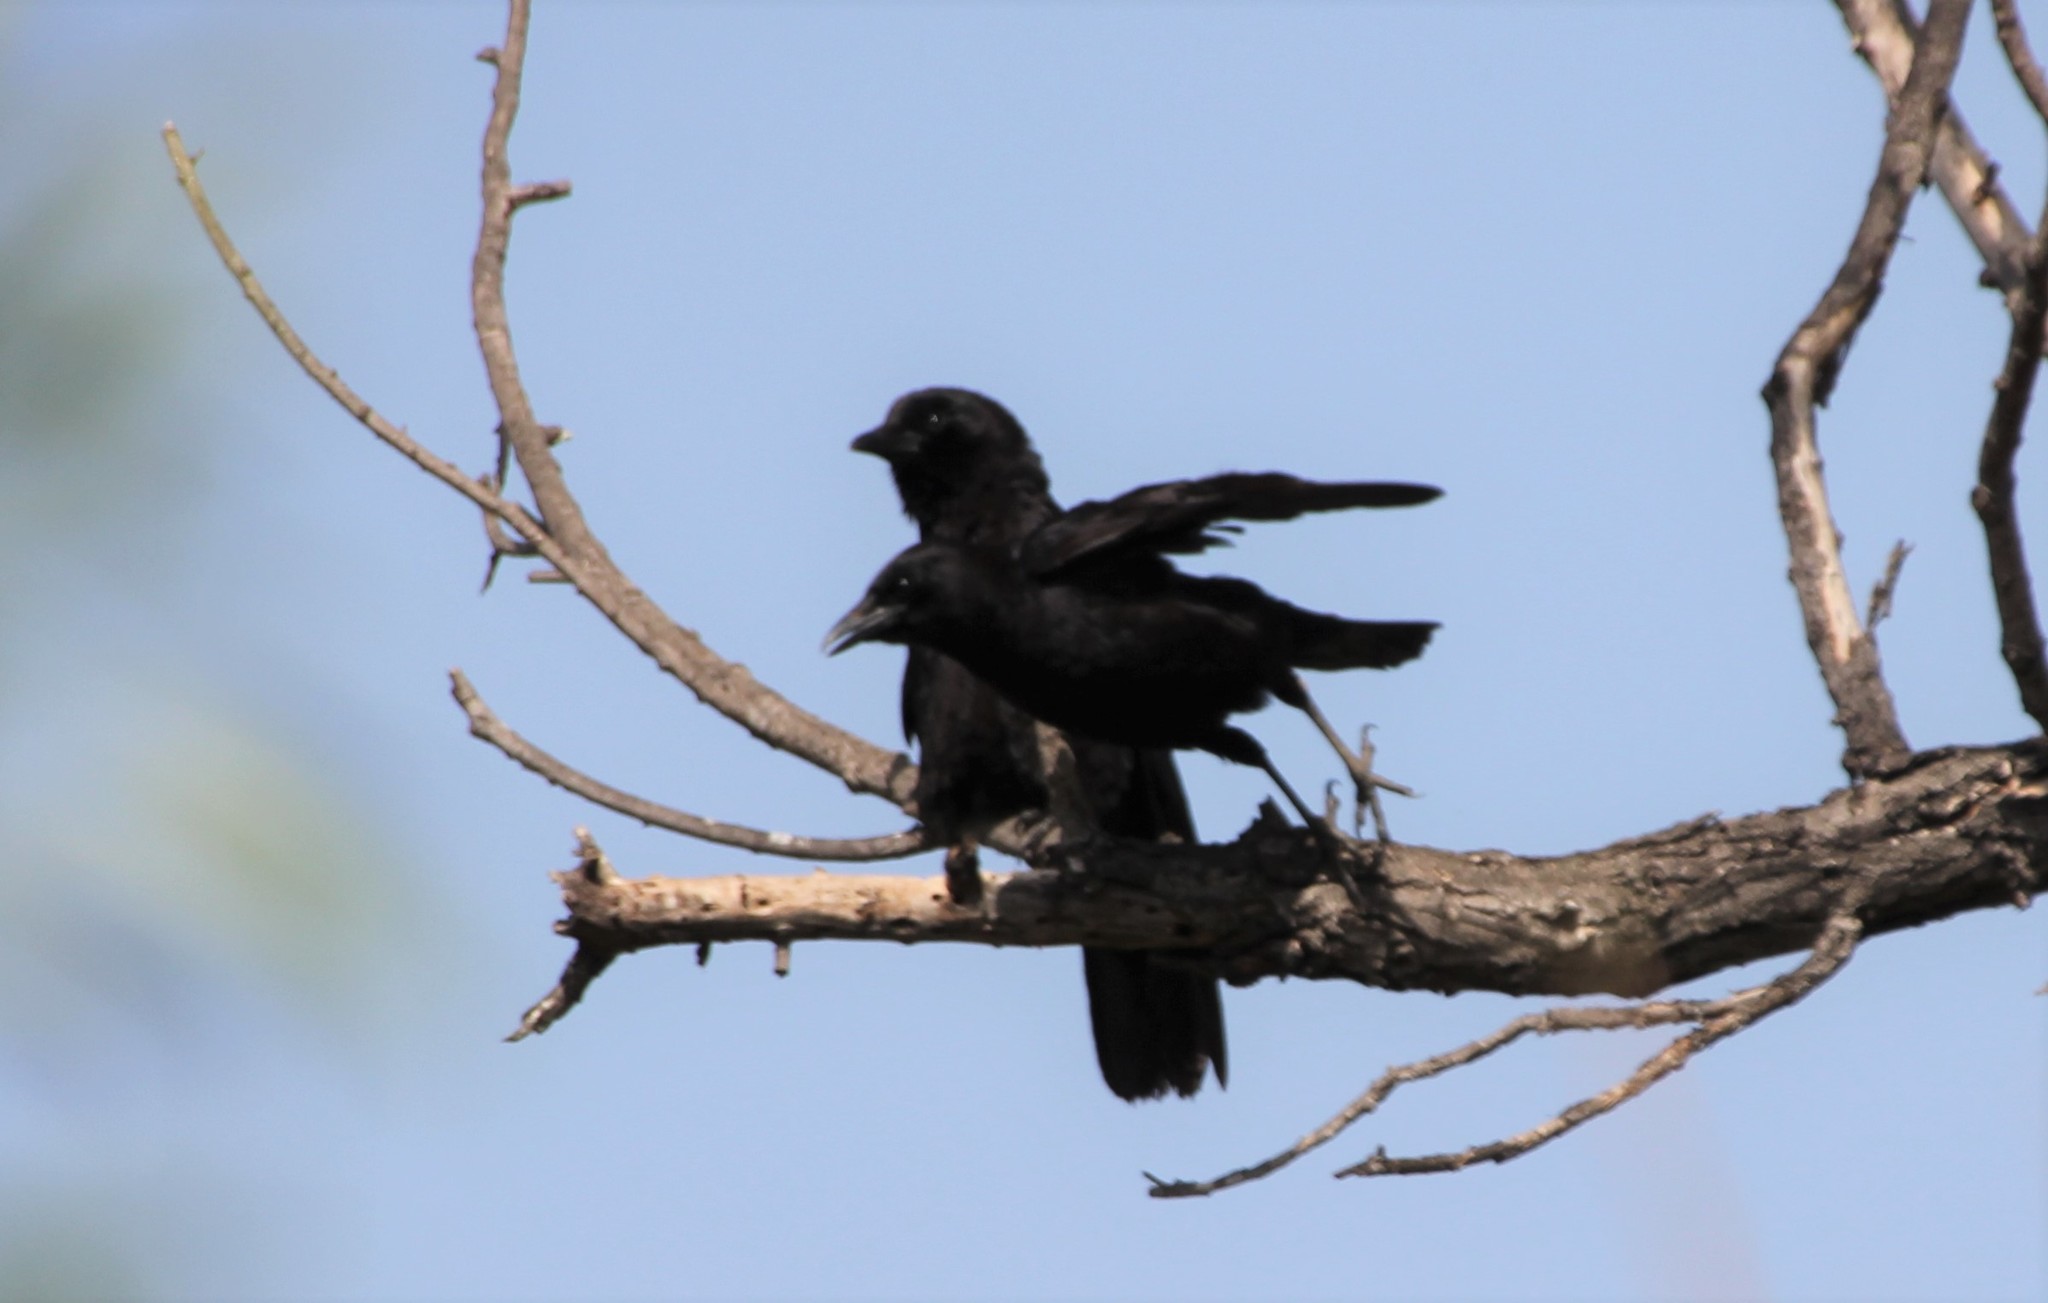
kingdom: Animalia
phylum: Chordata
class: Aves
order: Passeriformes
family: Corvidae
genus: Corvus
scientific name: Corvus brachyrhynchos
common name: American crow
